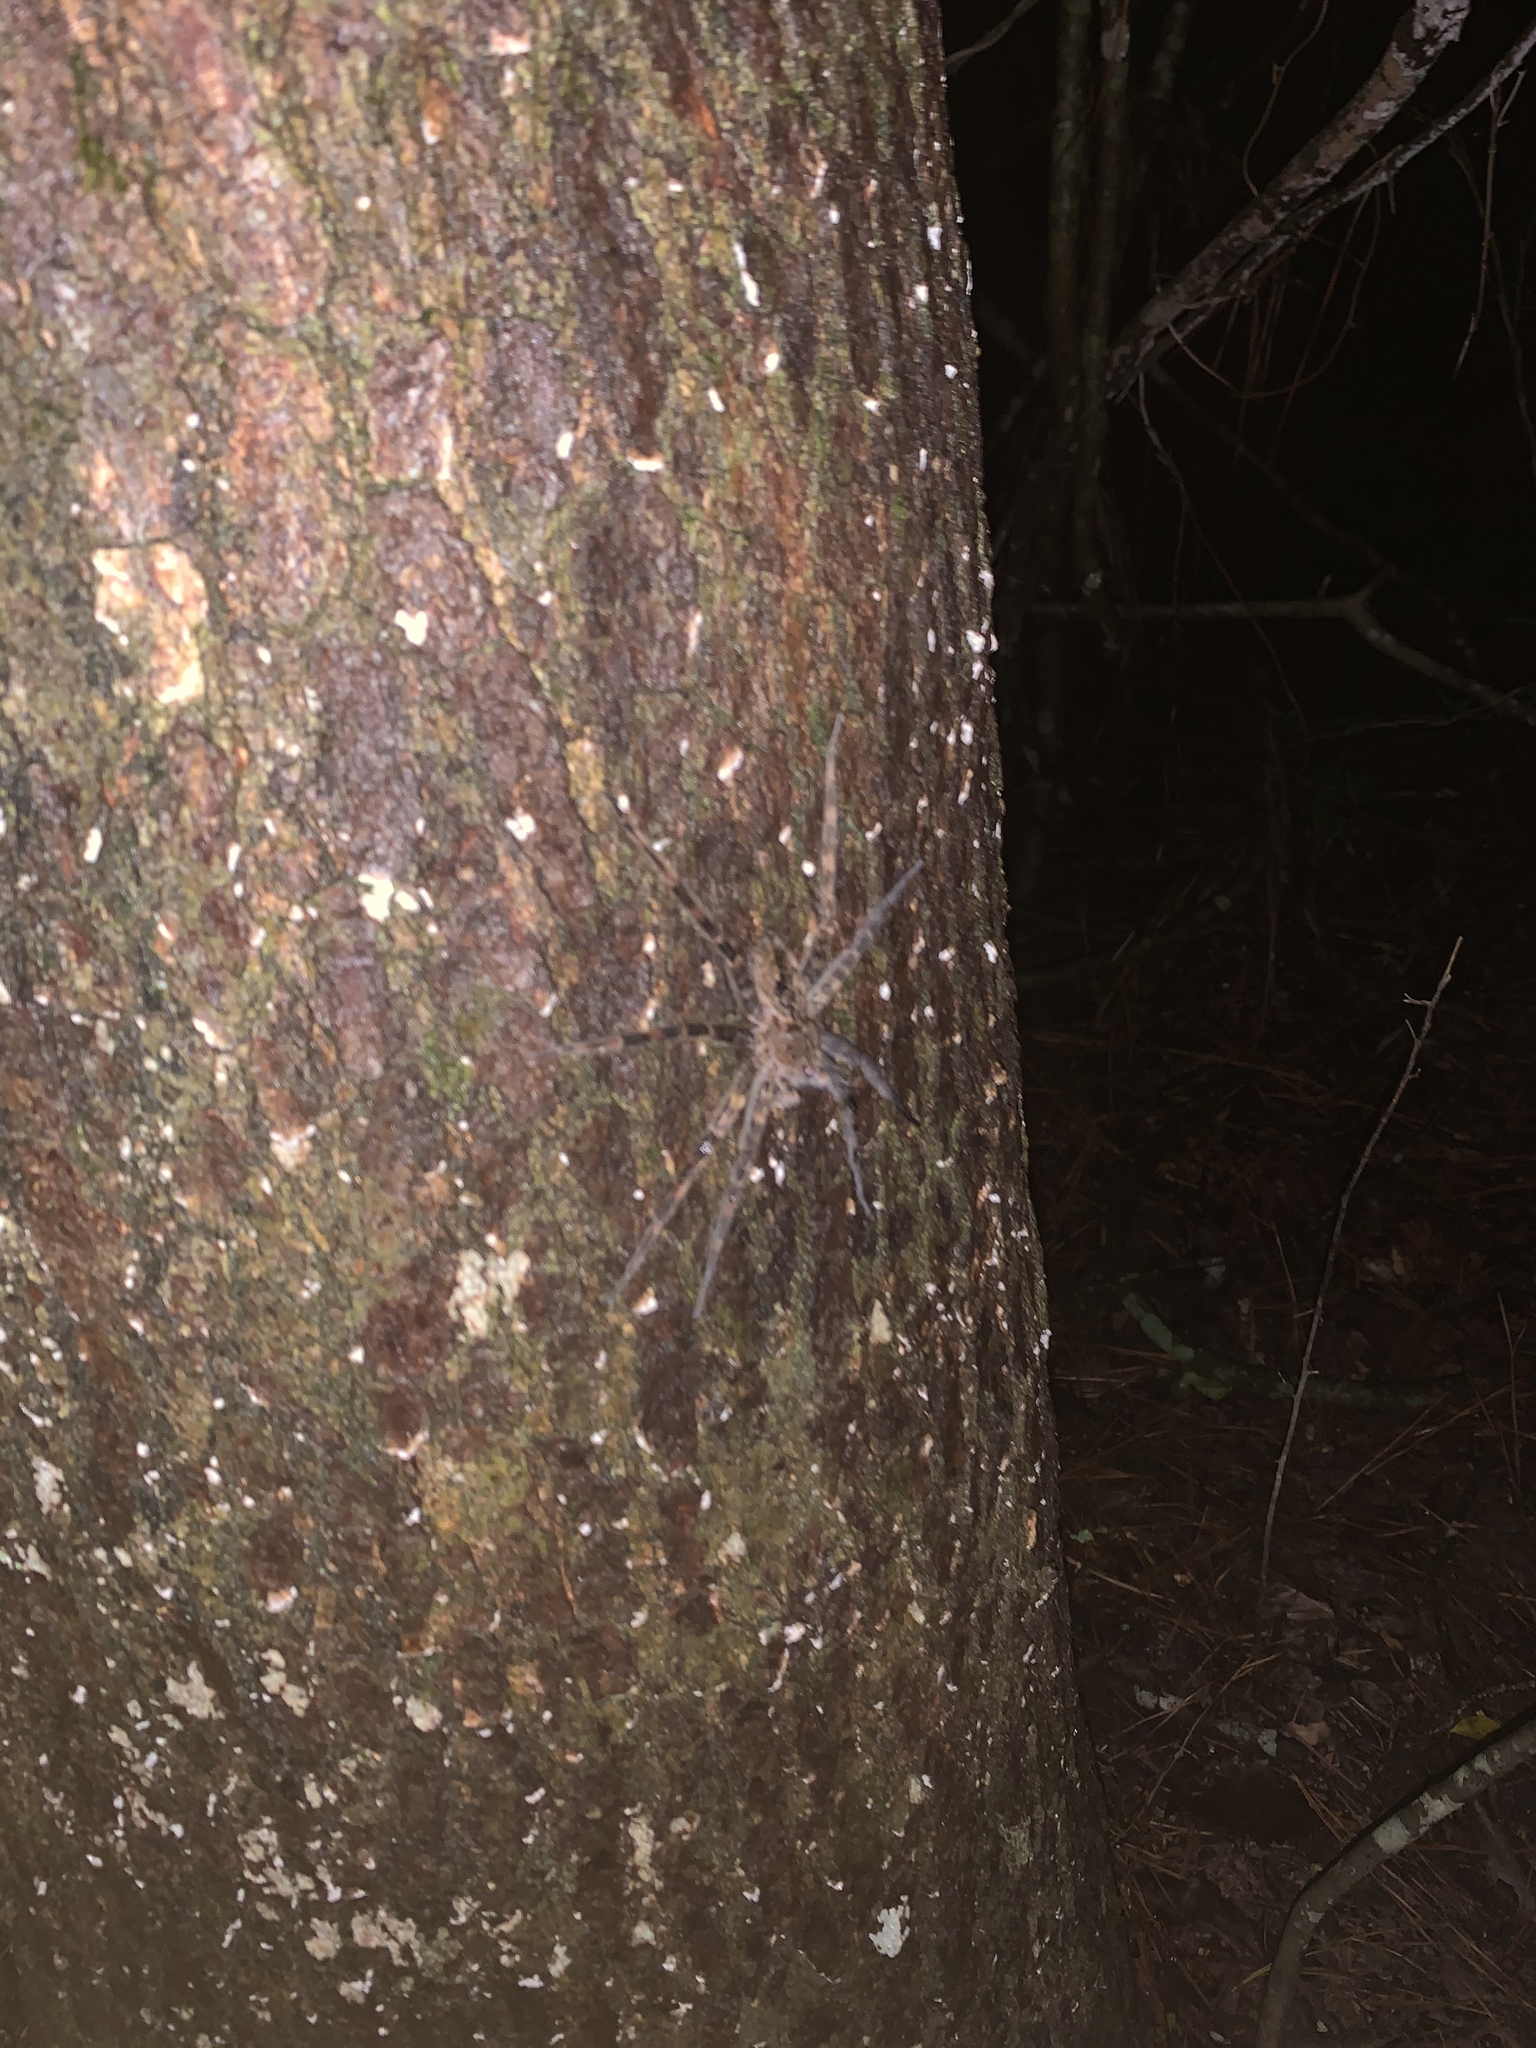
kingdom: Animalia
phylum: Arthropoda
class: Arachnida
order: Araneae
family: Pisauridae
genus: Dolomedes
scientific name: Dolomedes tenebrosus
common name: Dark fishing spider
